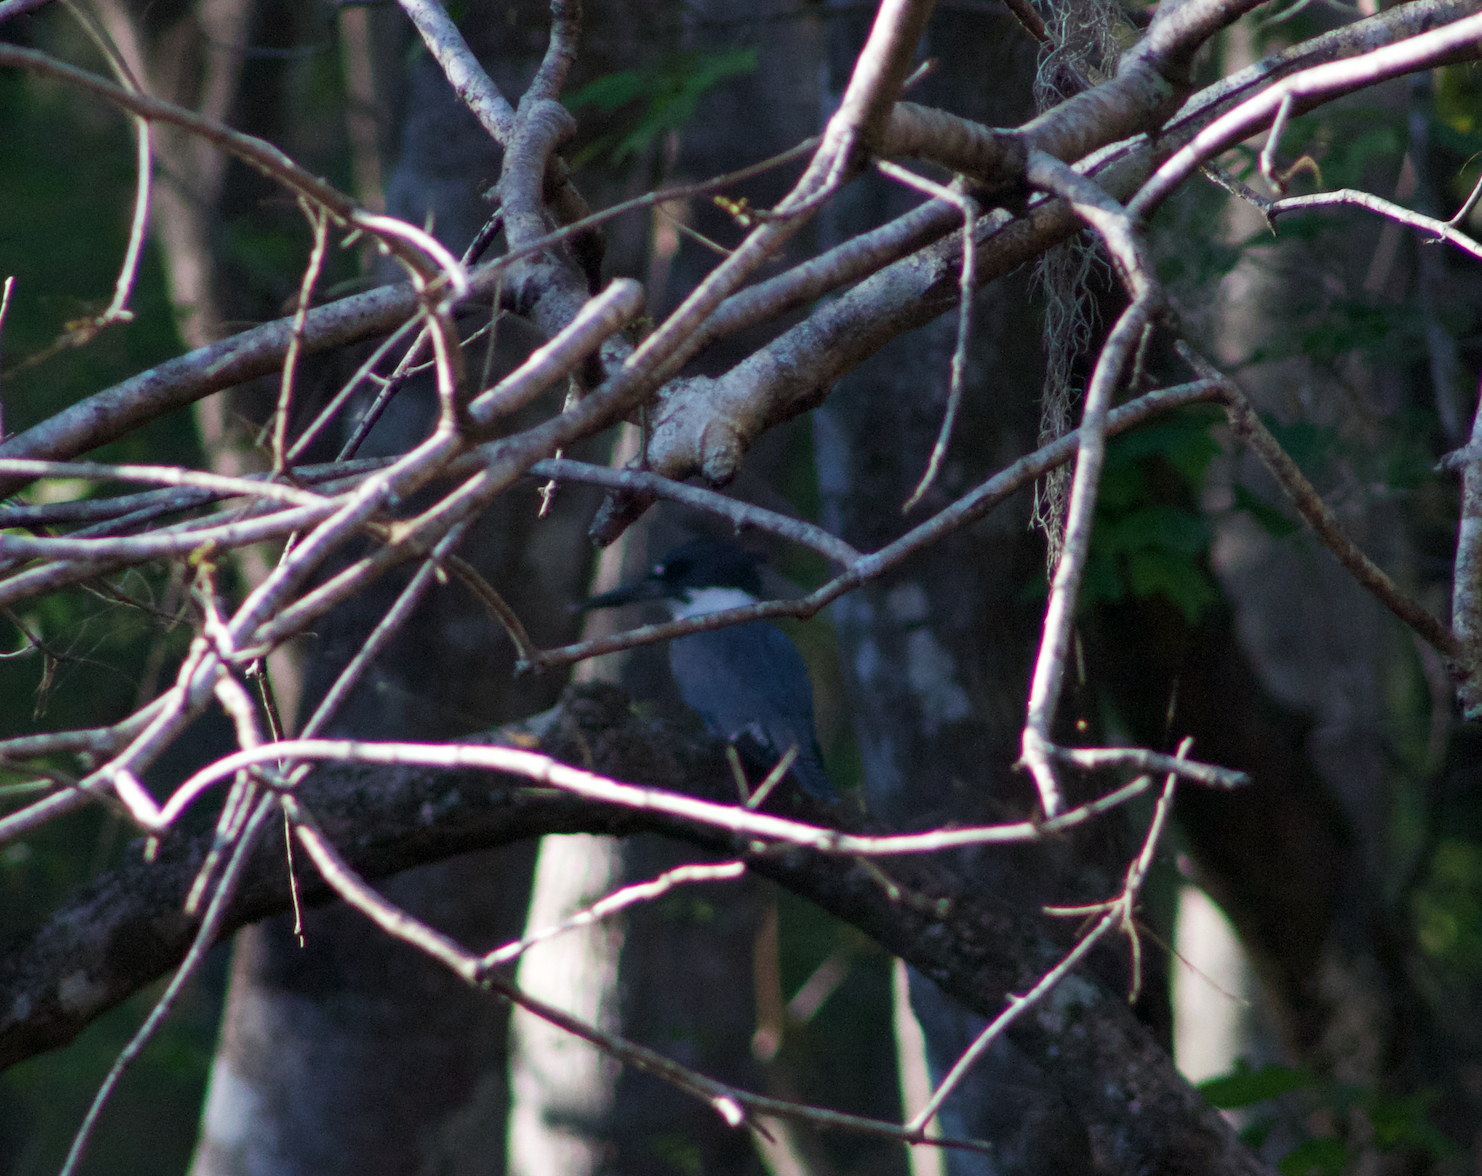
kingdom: Animalia
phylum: Chordata
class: Aves
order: Coraciiformes
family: Alcedinidae
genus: Megaceryle
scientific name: Megaceryle alcyon
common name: Belted kingfisher
